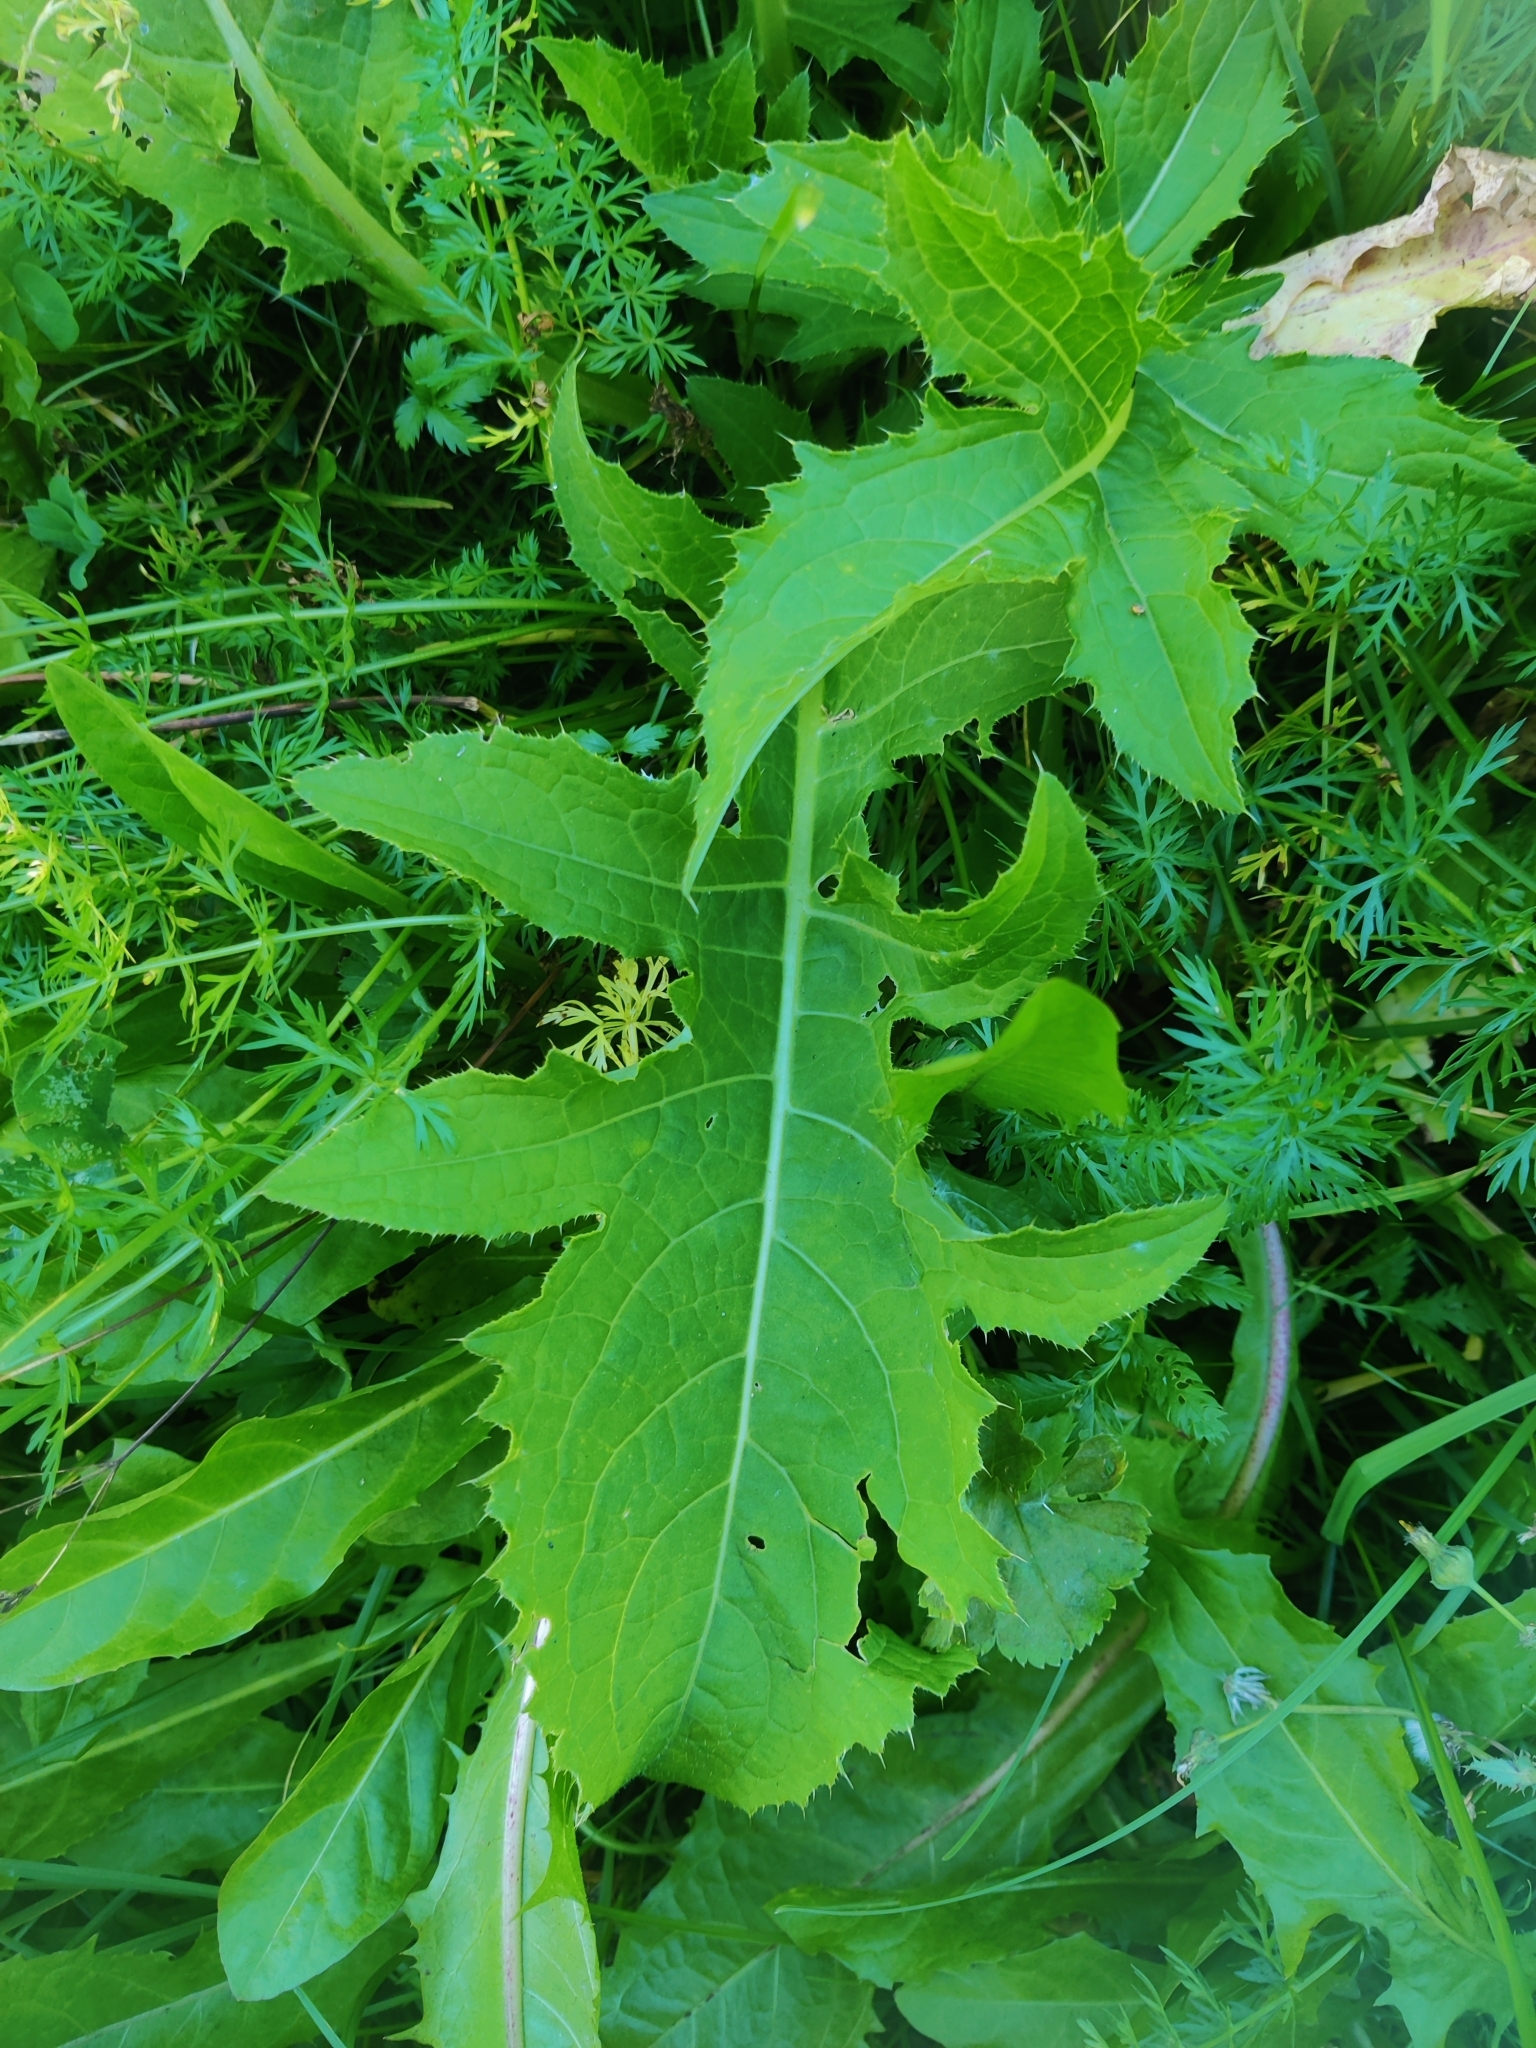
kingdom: Plantae
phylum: Tracheophyta
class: Magnoliopsida
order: Asterales
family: Asteraceae
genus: Cirsium
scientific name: Cirsium oleraceum
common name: Cabbage thistle
